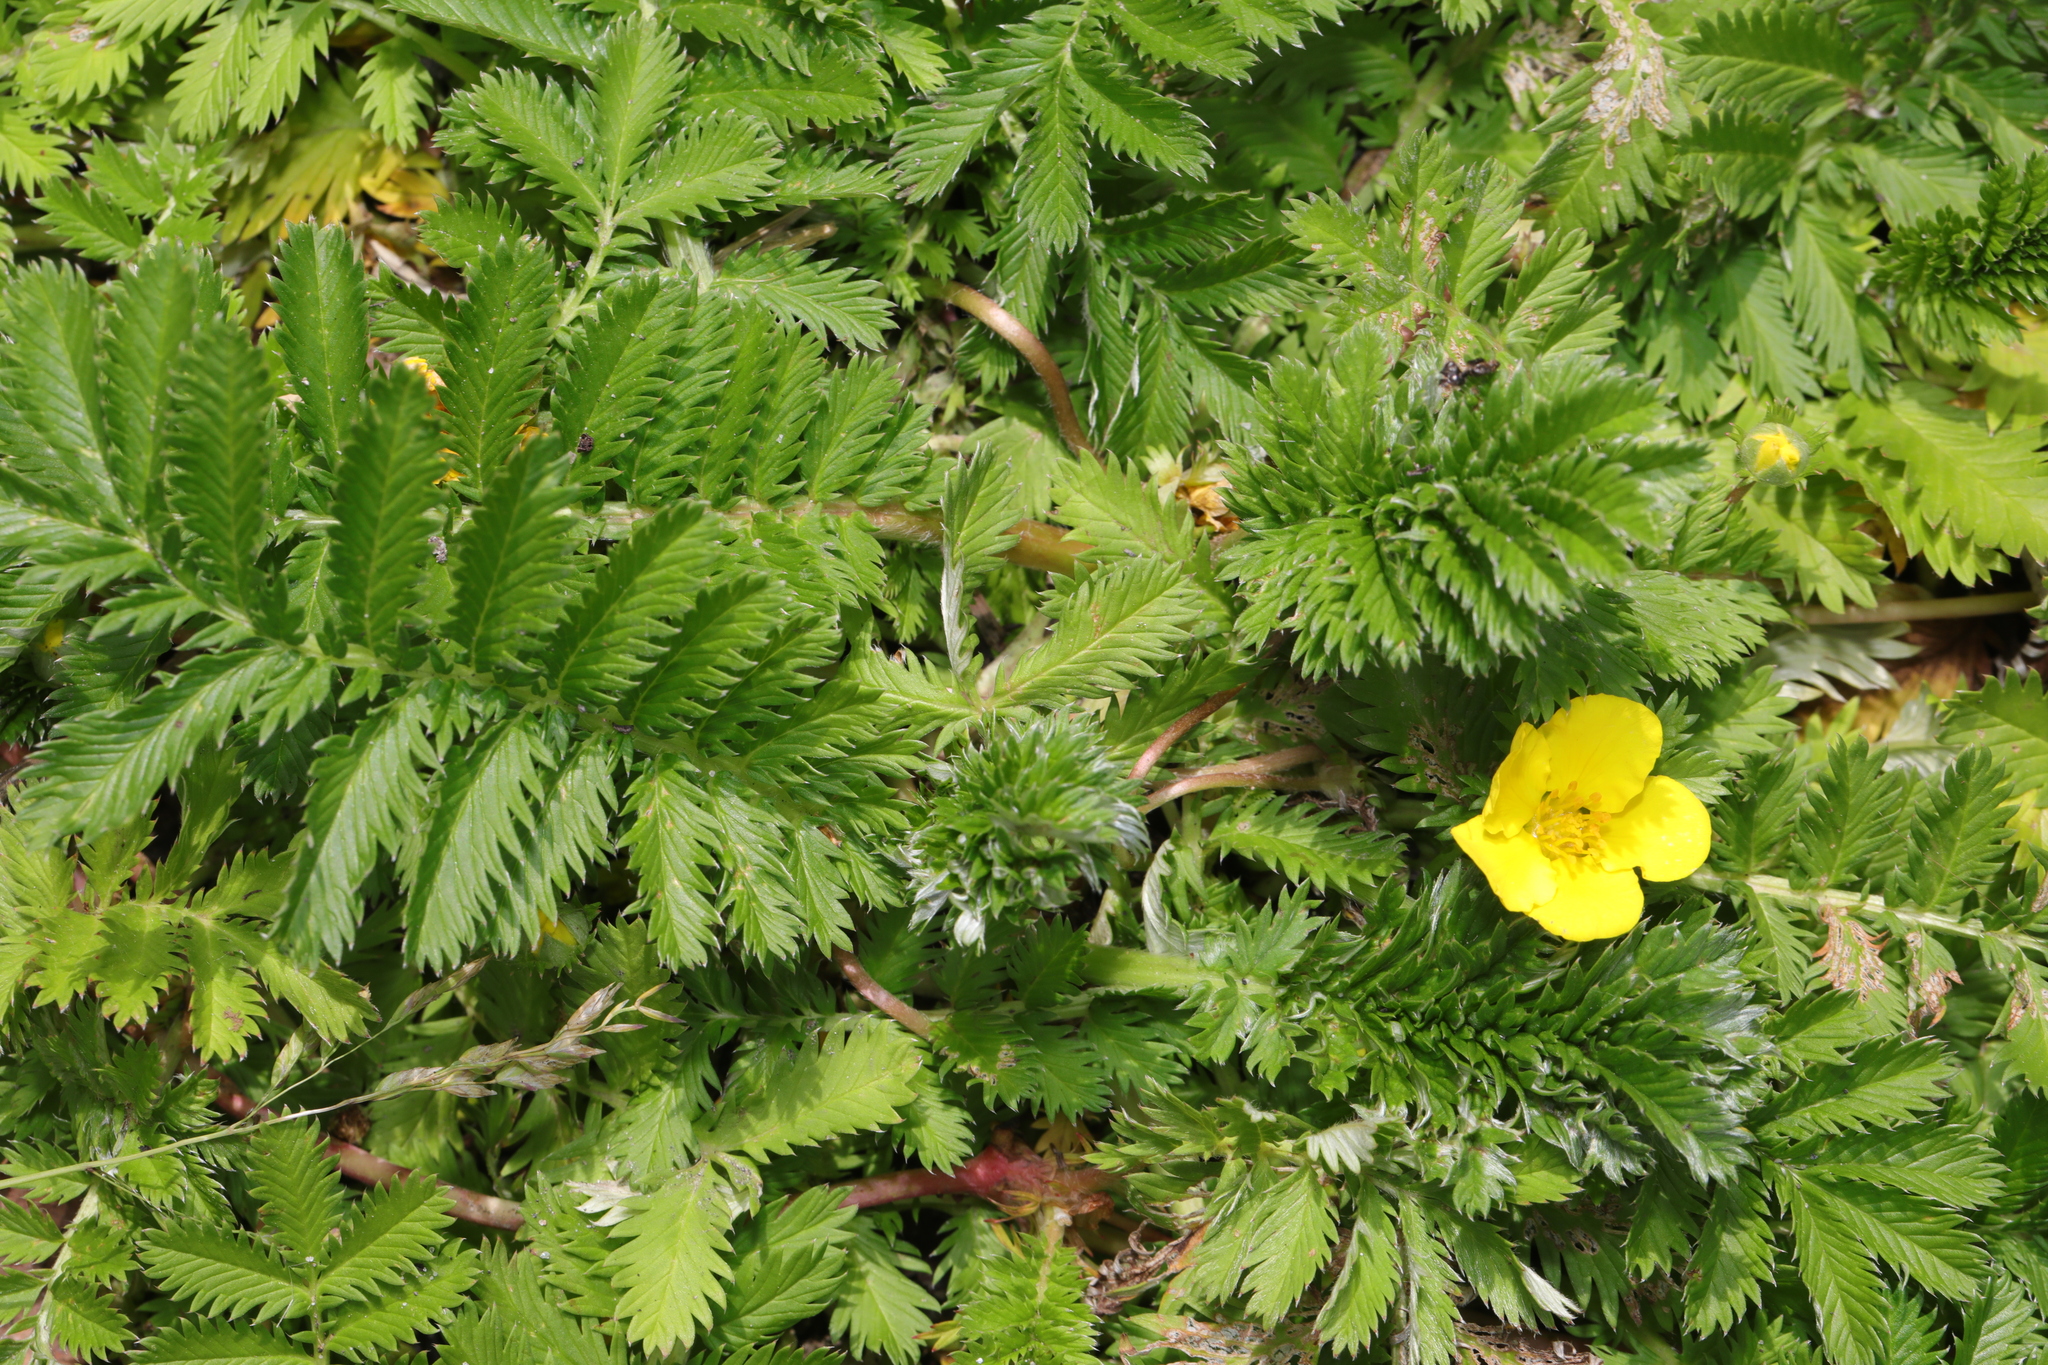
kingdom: Plantae
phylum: Tracheophyta
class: Magnoliopsida
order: Rosales
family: Rosaceae
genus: Argentina
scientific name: Argentina anserina
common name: Common silverweed
